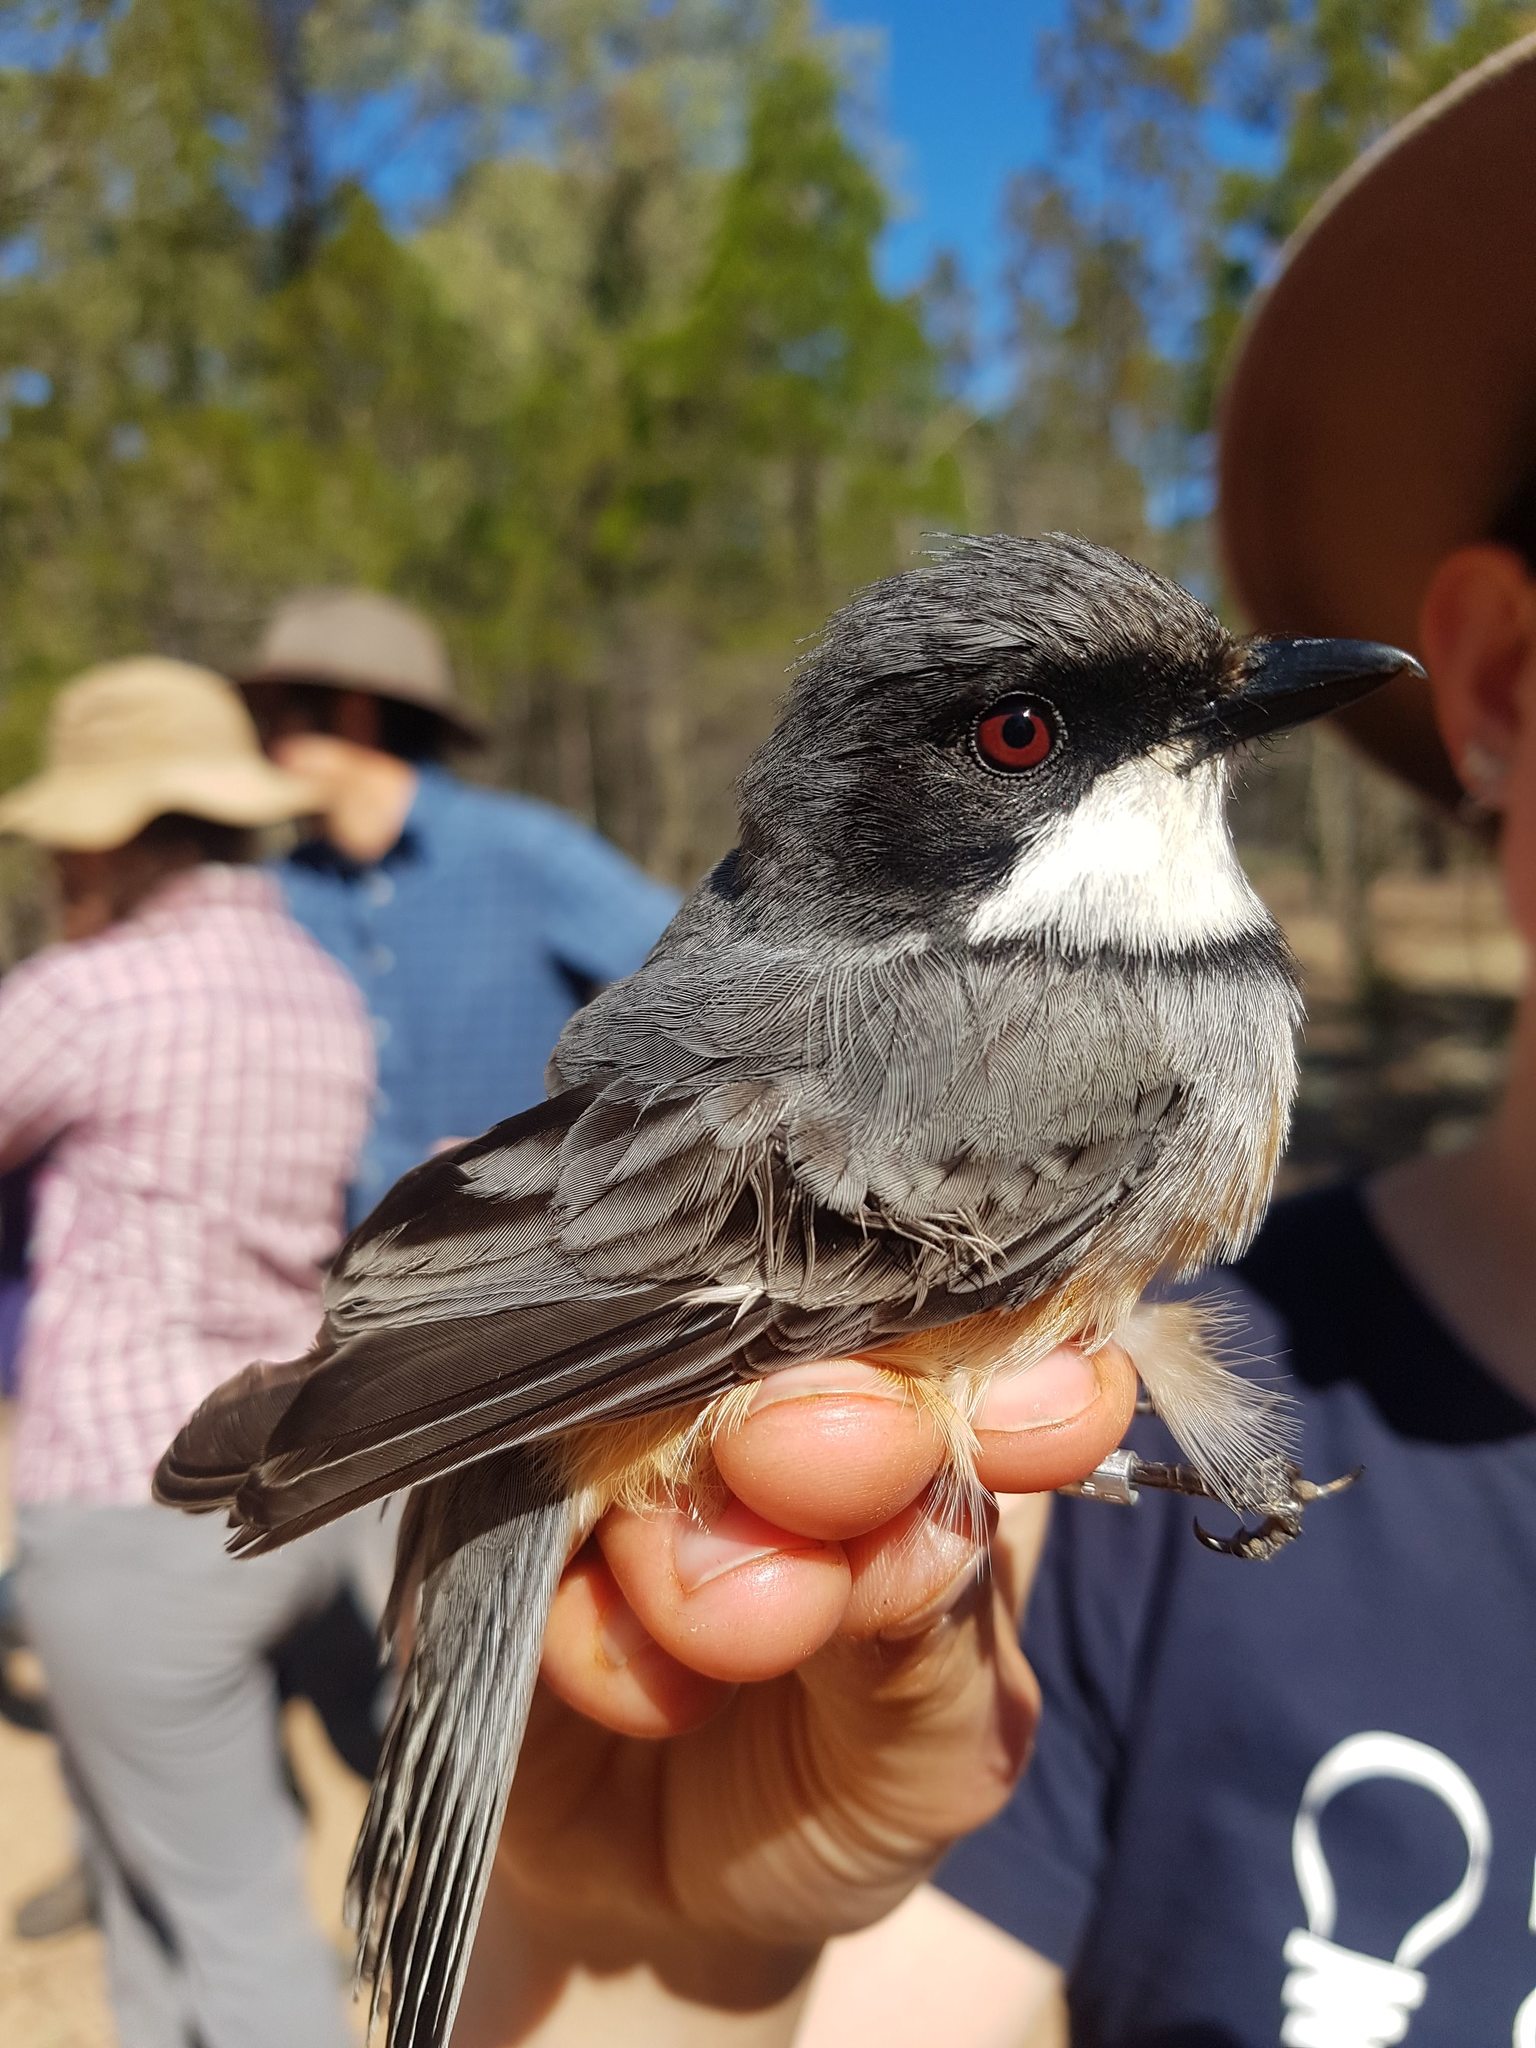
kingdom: Animalia
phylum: Chordata
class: Aves
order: Passeriformes
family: Pachycephalidae
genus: Pachycephala
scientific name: Pachycephala rufiventris
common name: Rufous whistler
